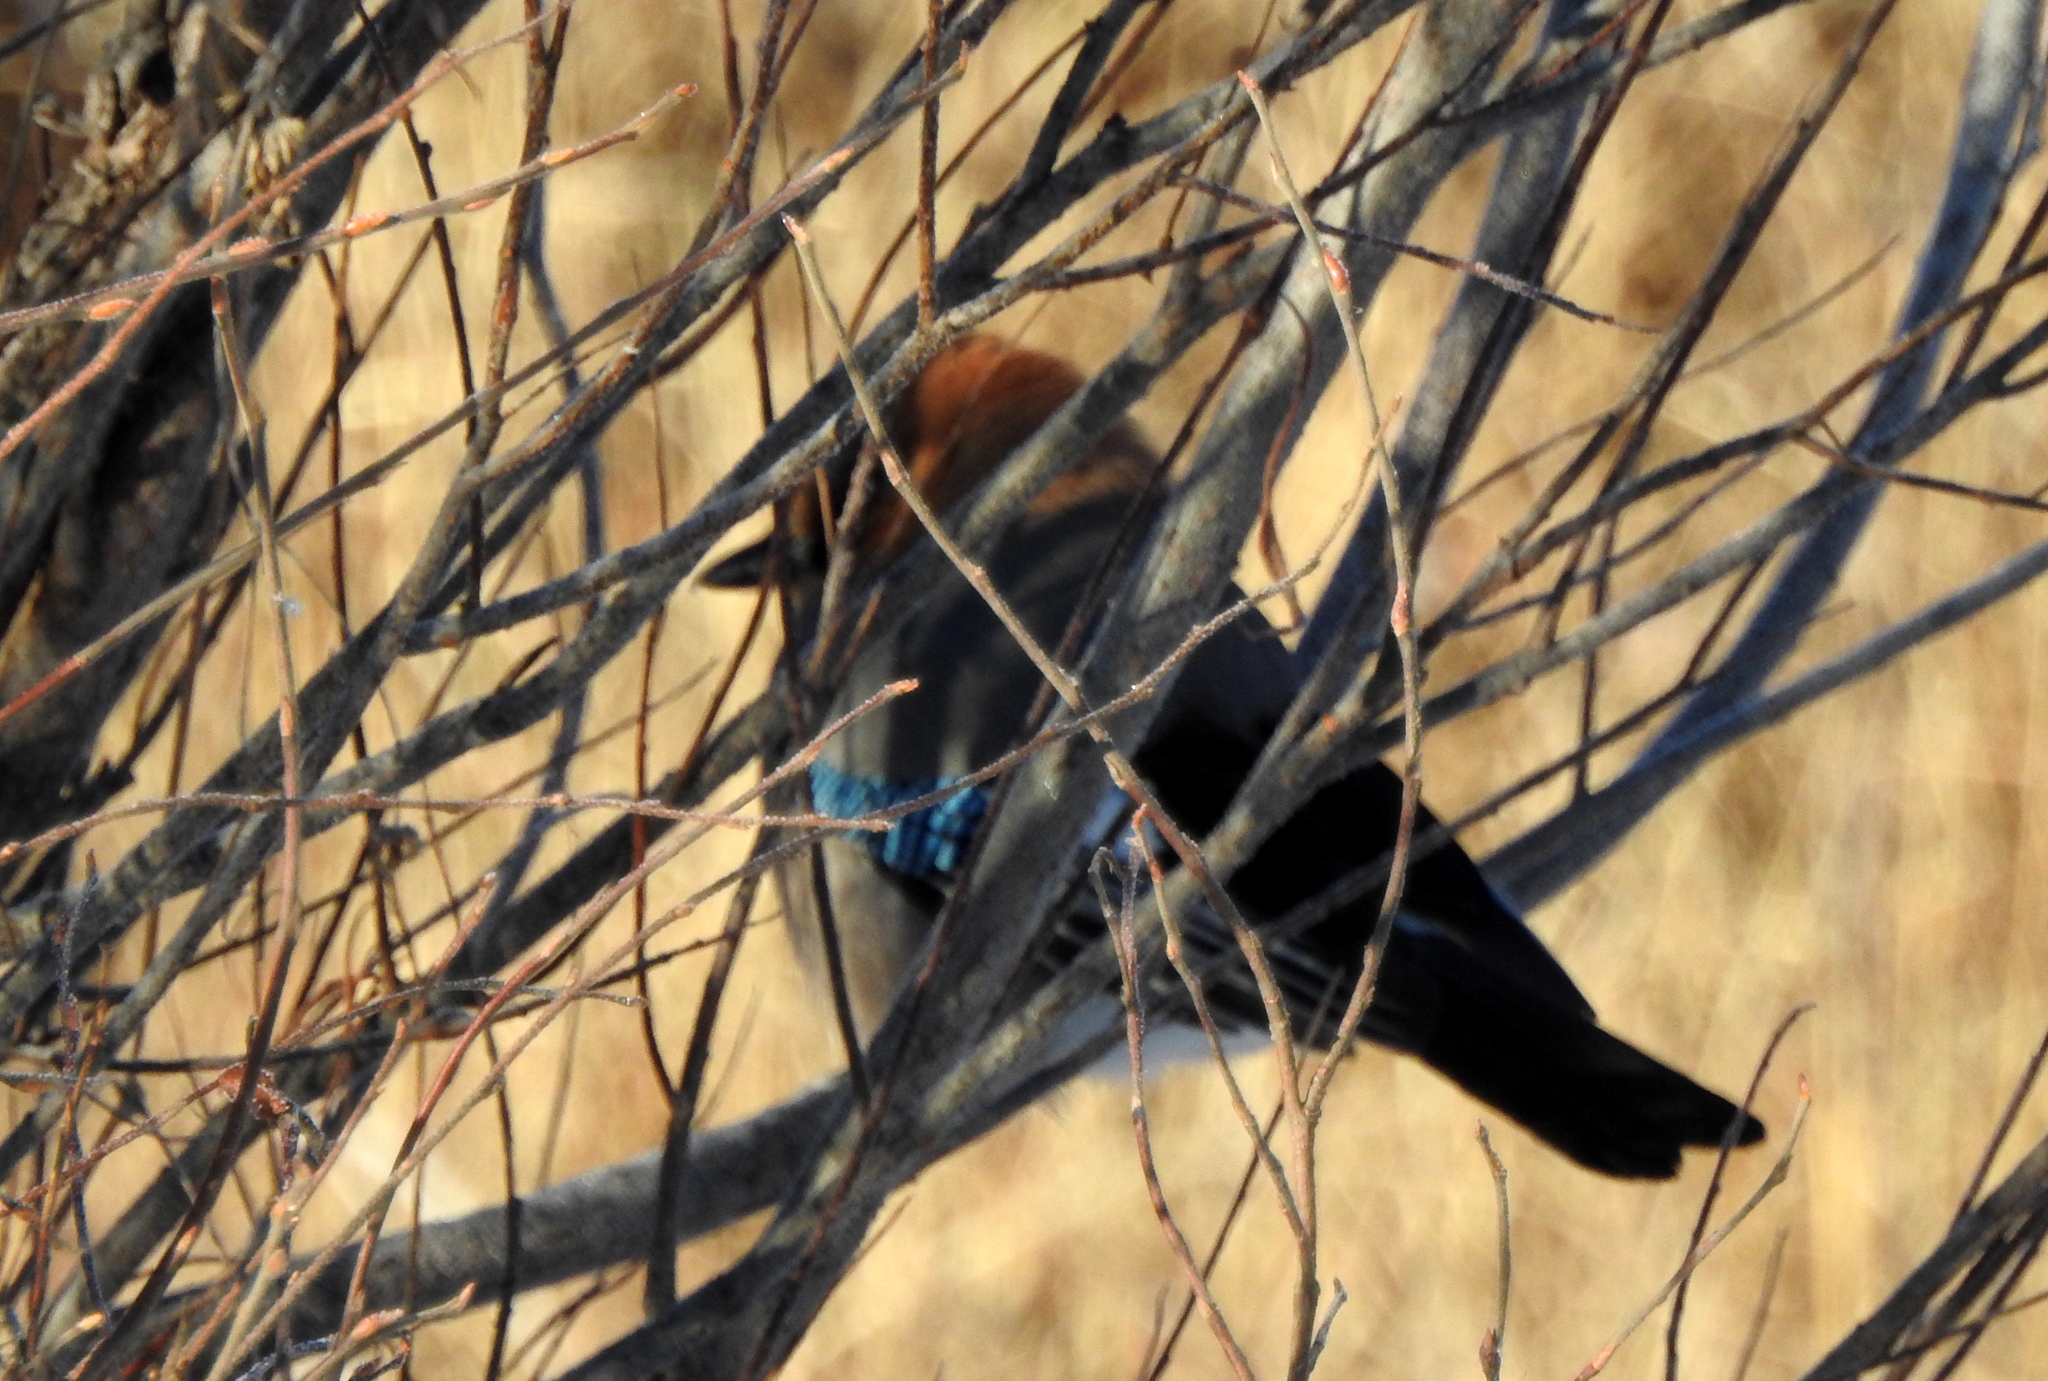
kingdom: Animalia
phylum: Chordata
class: Aves
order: Passeriformes
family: Corvidae
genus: Garrulus
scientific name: Garrulus glandarius
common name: Eurasian jay
